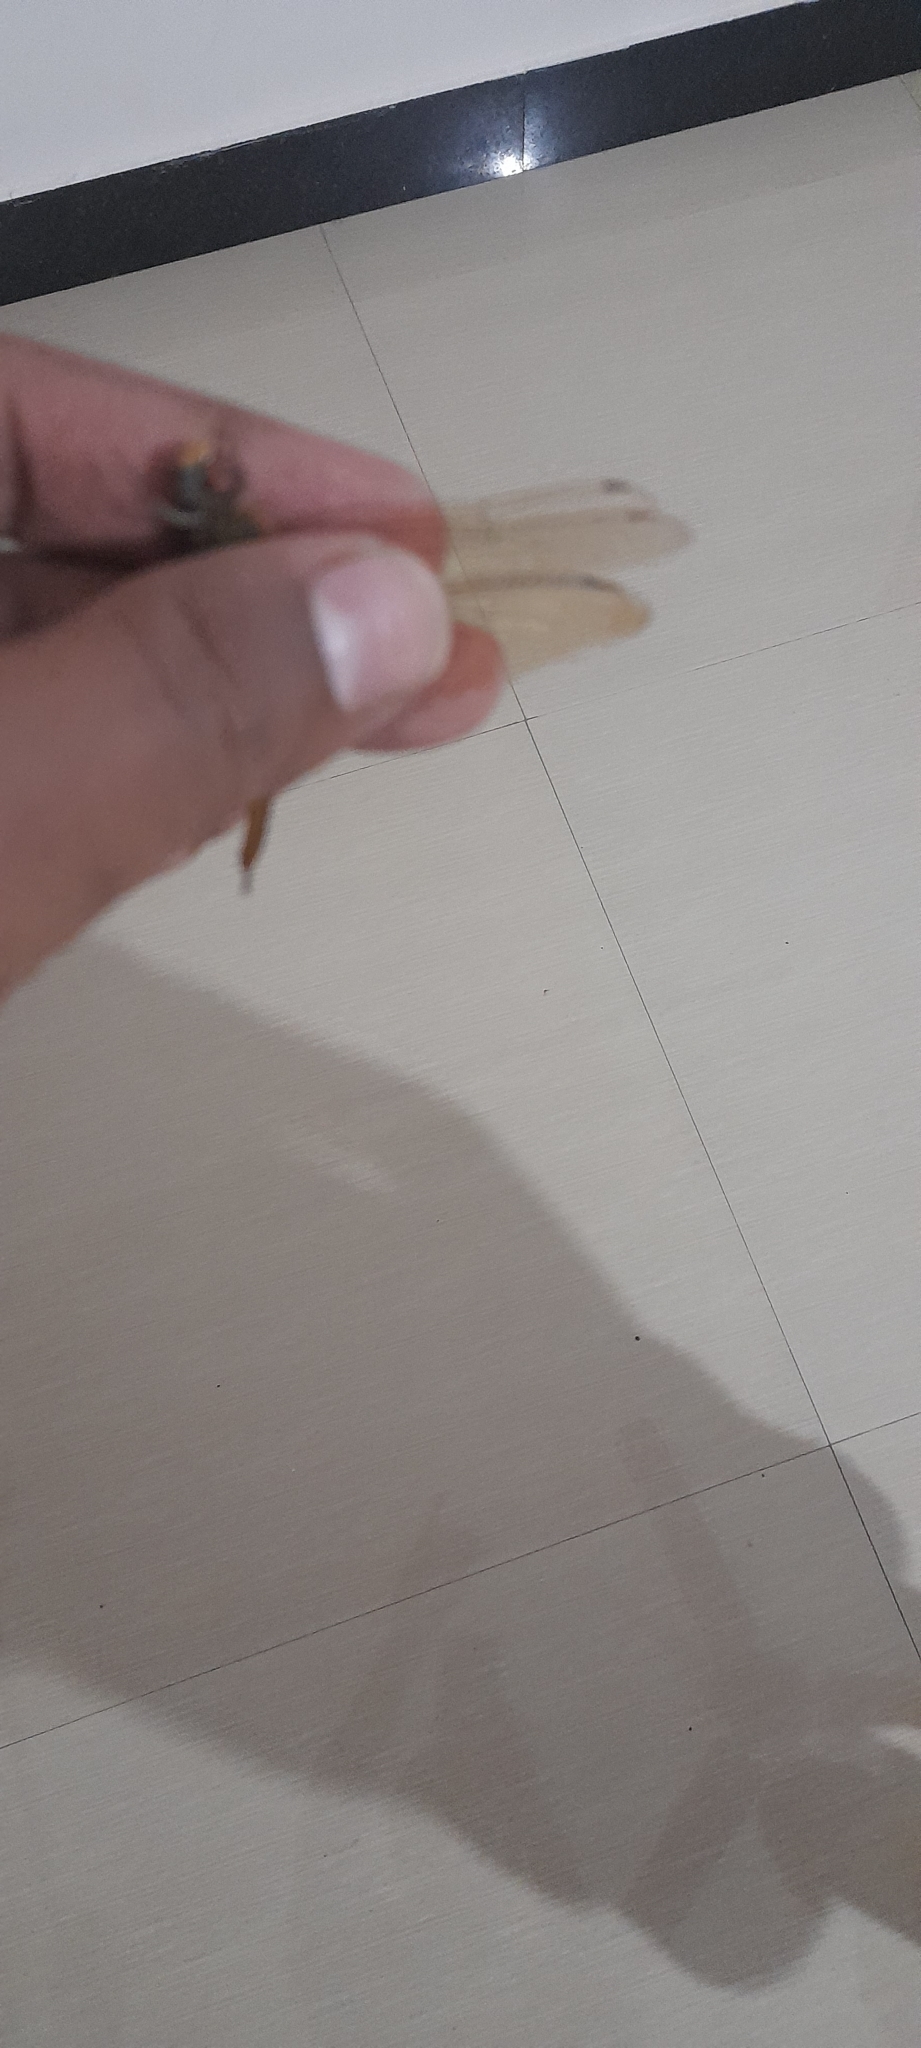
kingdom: Animalia
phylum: Arthropoda
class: Insecta
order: Odonata
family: Libellulidae
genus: Pantala
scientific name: Pantala flavescens
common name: Wandering glider
